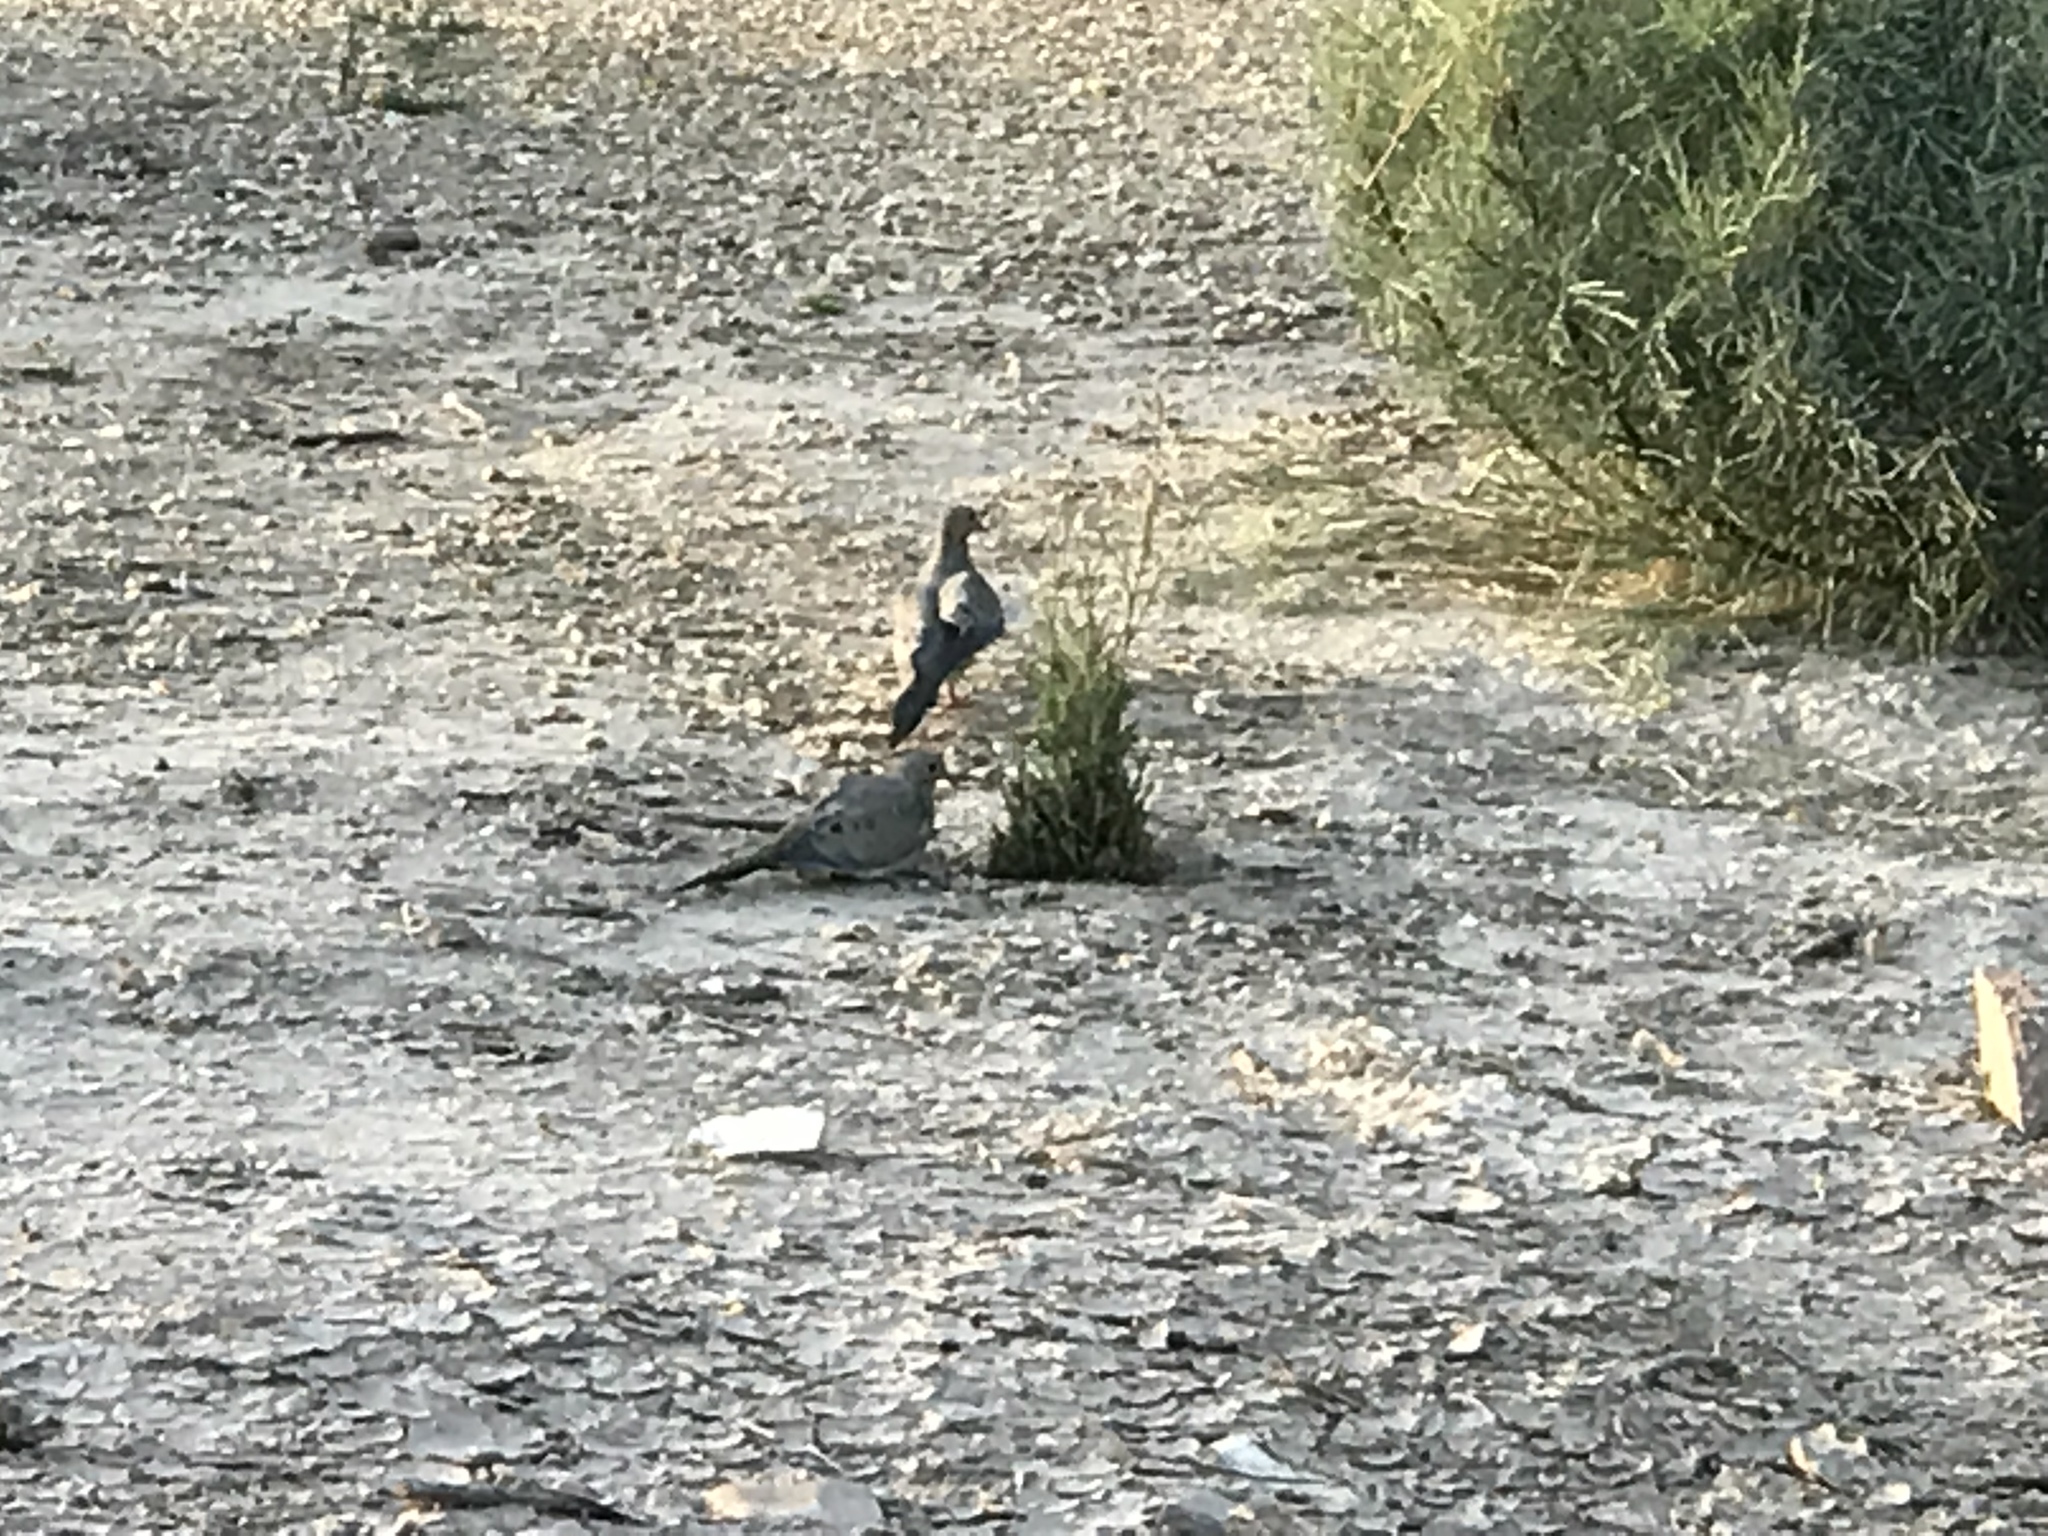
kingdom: Animalia
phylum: Chordata
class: Aves
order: Columbiformes
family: Columbidae
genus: Zenaida
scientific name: Zenaida macroura
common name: Mourning dove
